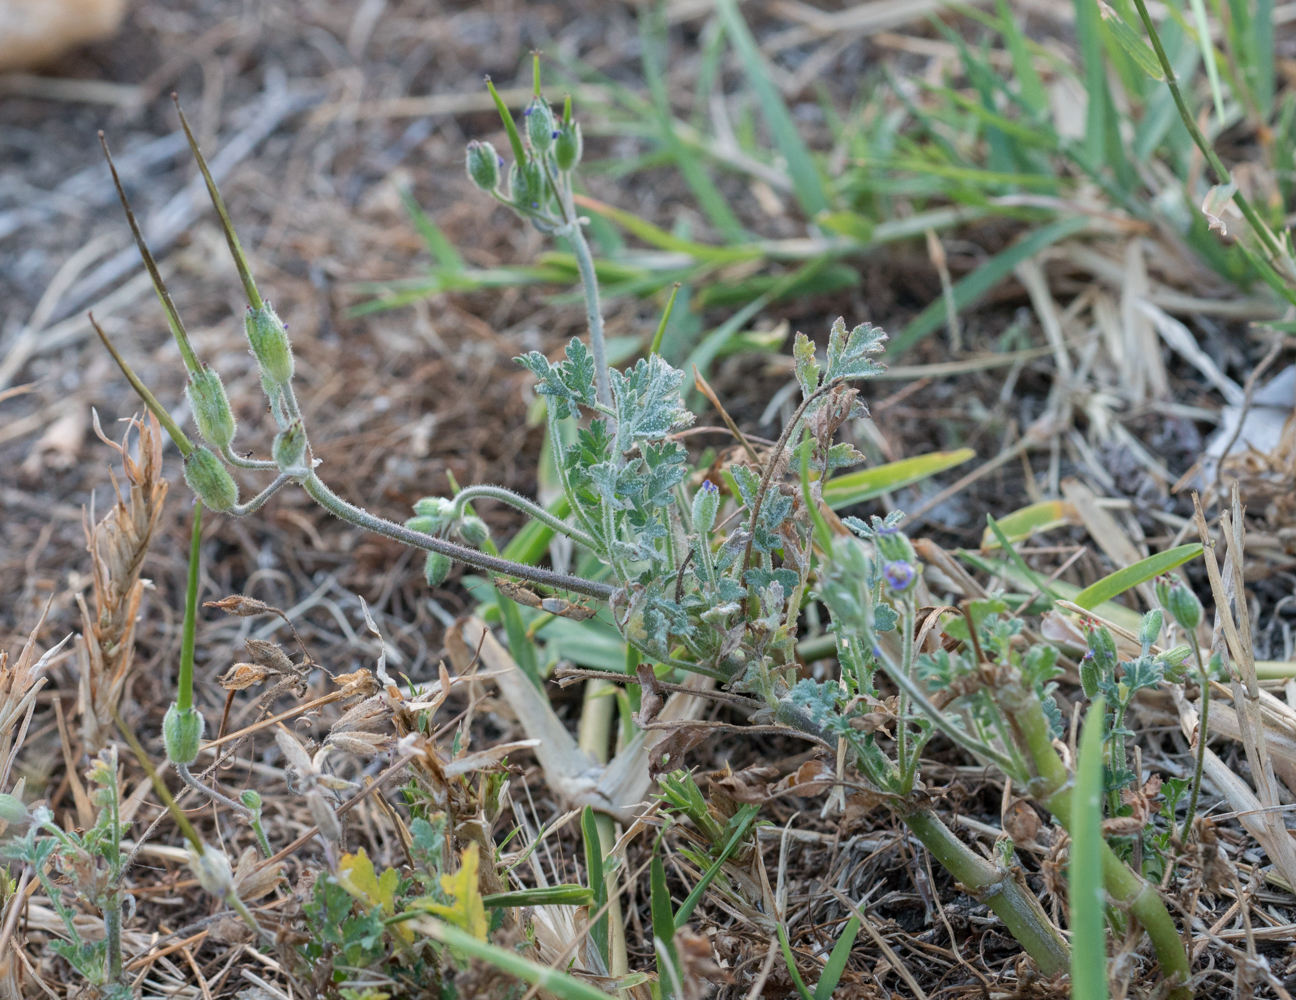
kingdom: Plantae
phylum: Tracheophyta
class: Magnoliopsida
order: Geraniales
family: Geraniaceae
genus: Erodium
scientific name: Erodium cicutarium
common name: Common stork's-bill
